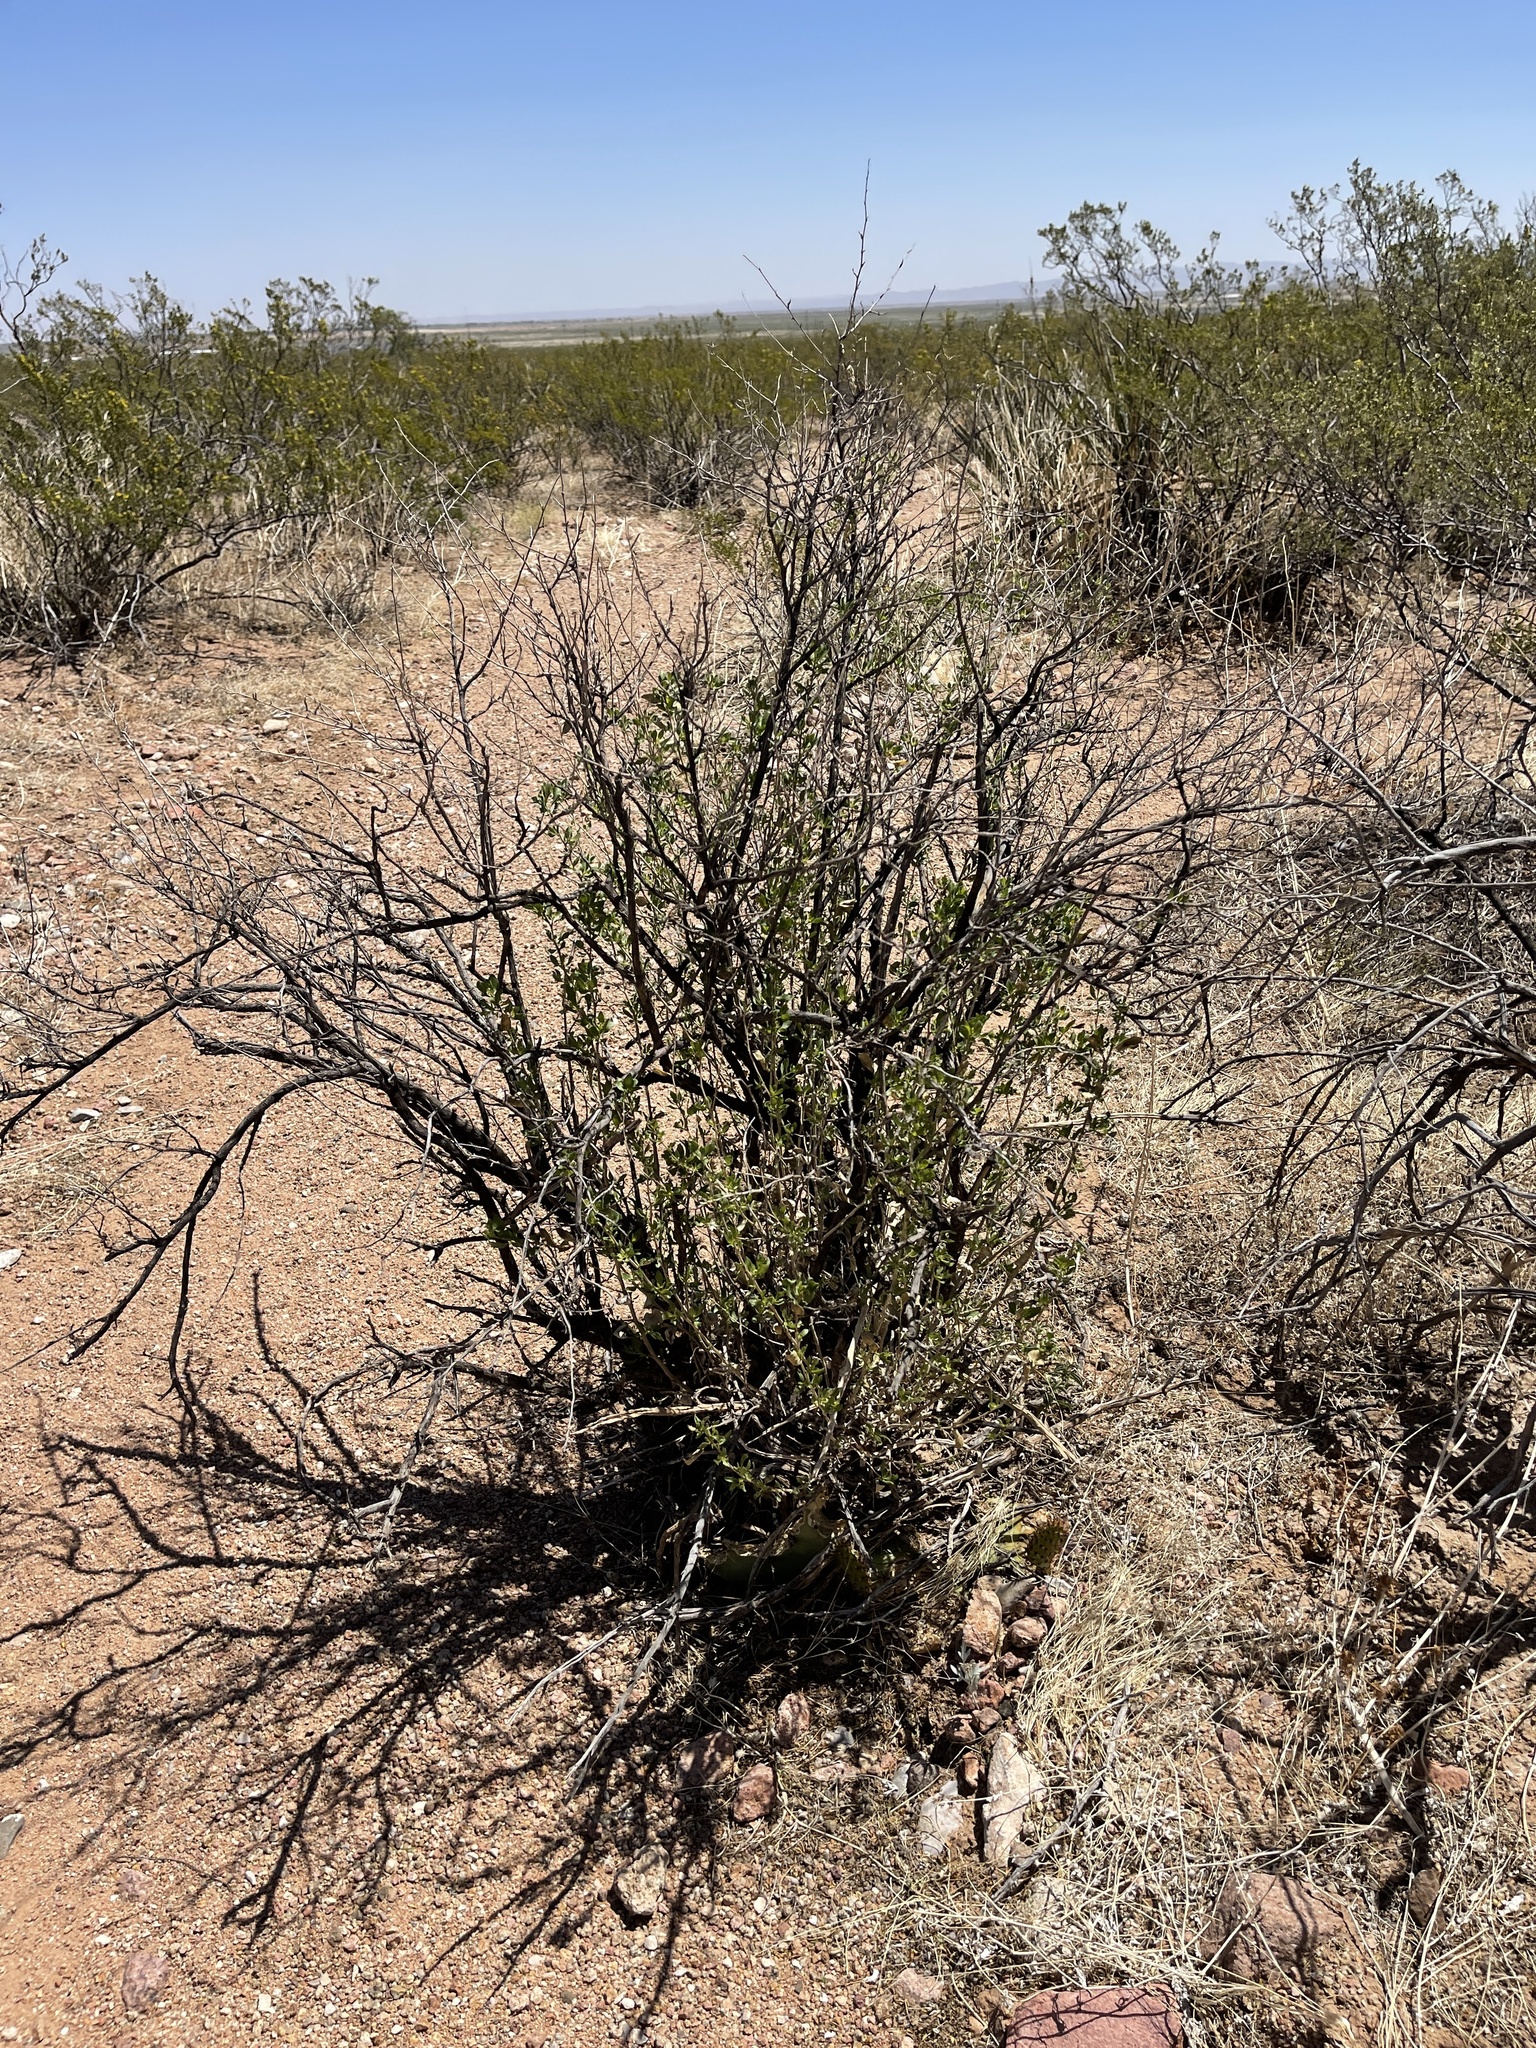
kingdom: Plantae
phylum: Tracheophyta
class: Magnoliopsida
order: Asterales
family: Asteraceae
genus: Flourensia
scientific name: Flourensia cernua
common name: Varnishbush
